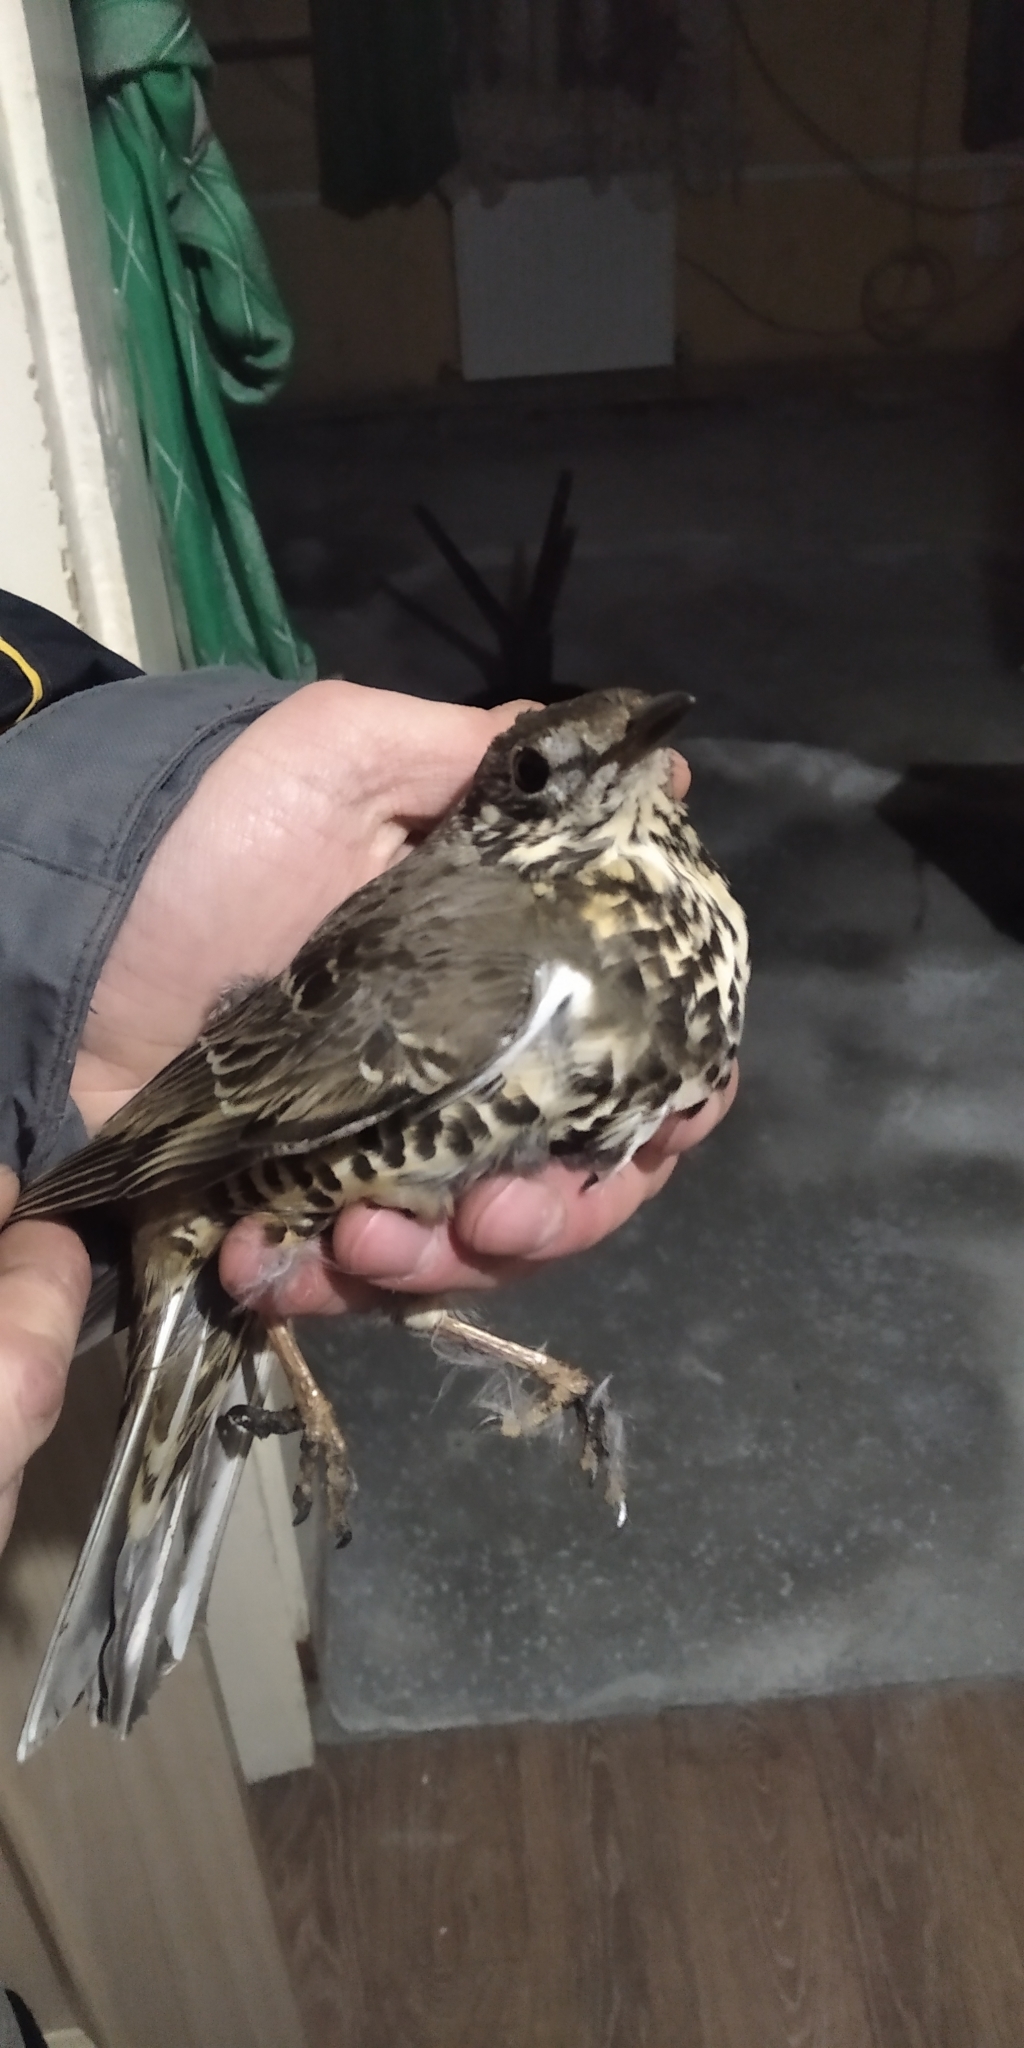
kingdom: Animalia
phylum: Chordata
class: Aves
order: Passeriformes
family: Turdidae
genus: Turdus
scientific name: Turdus viscivorus
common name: Mistle thrush
